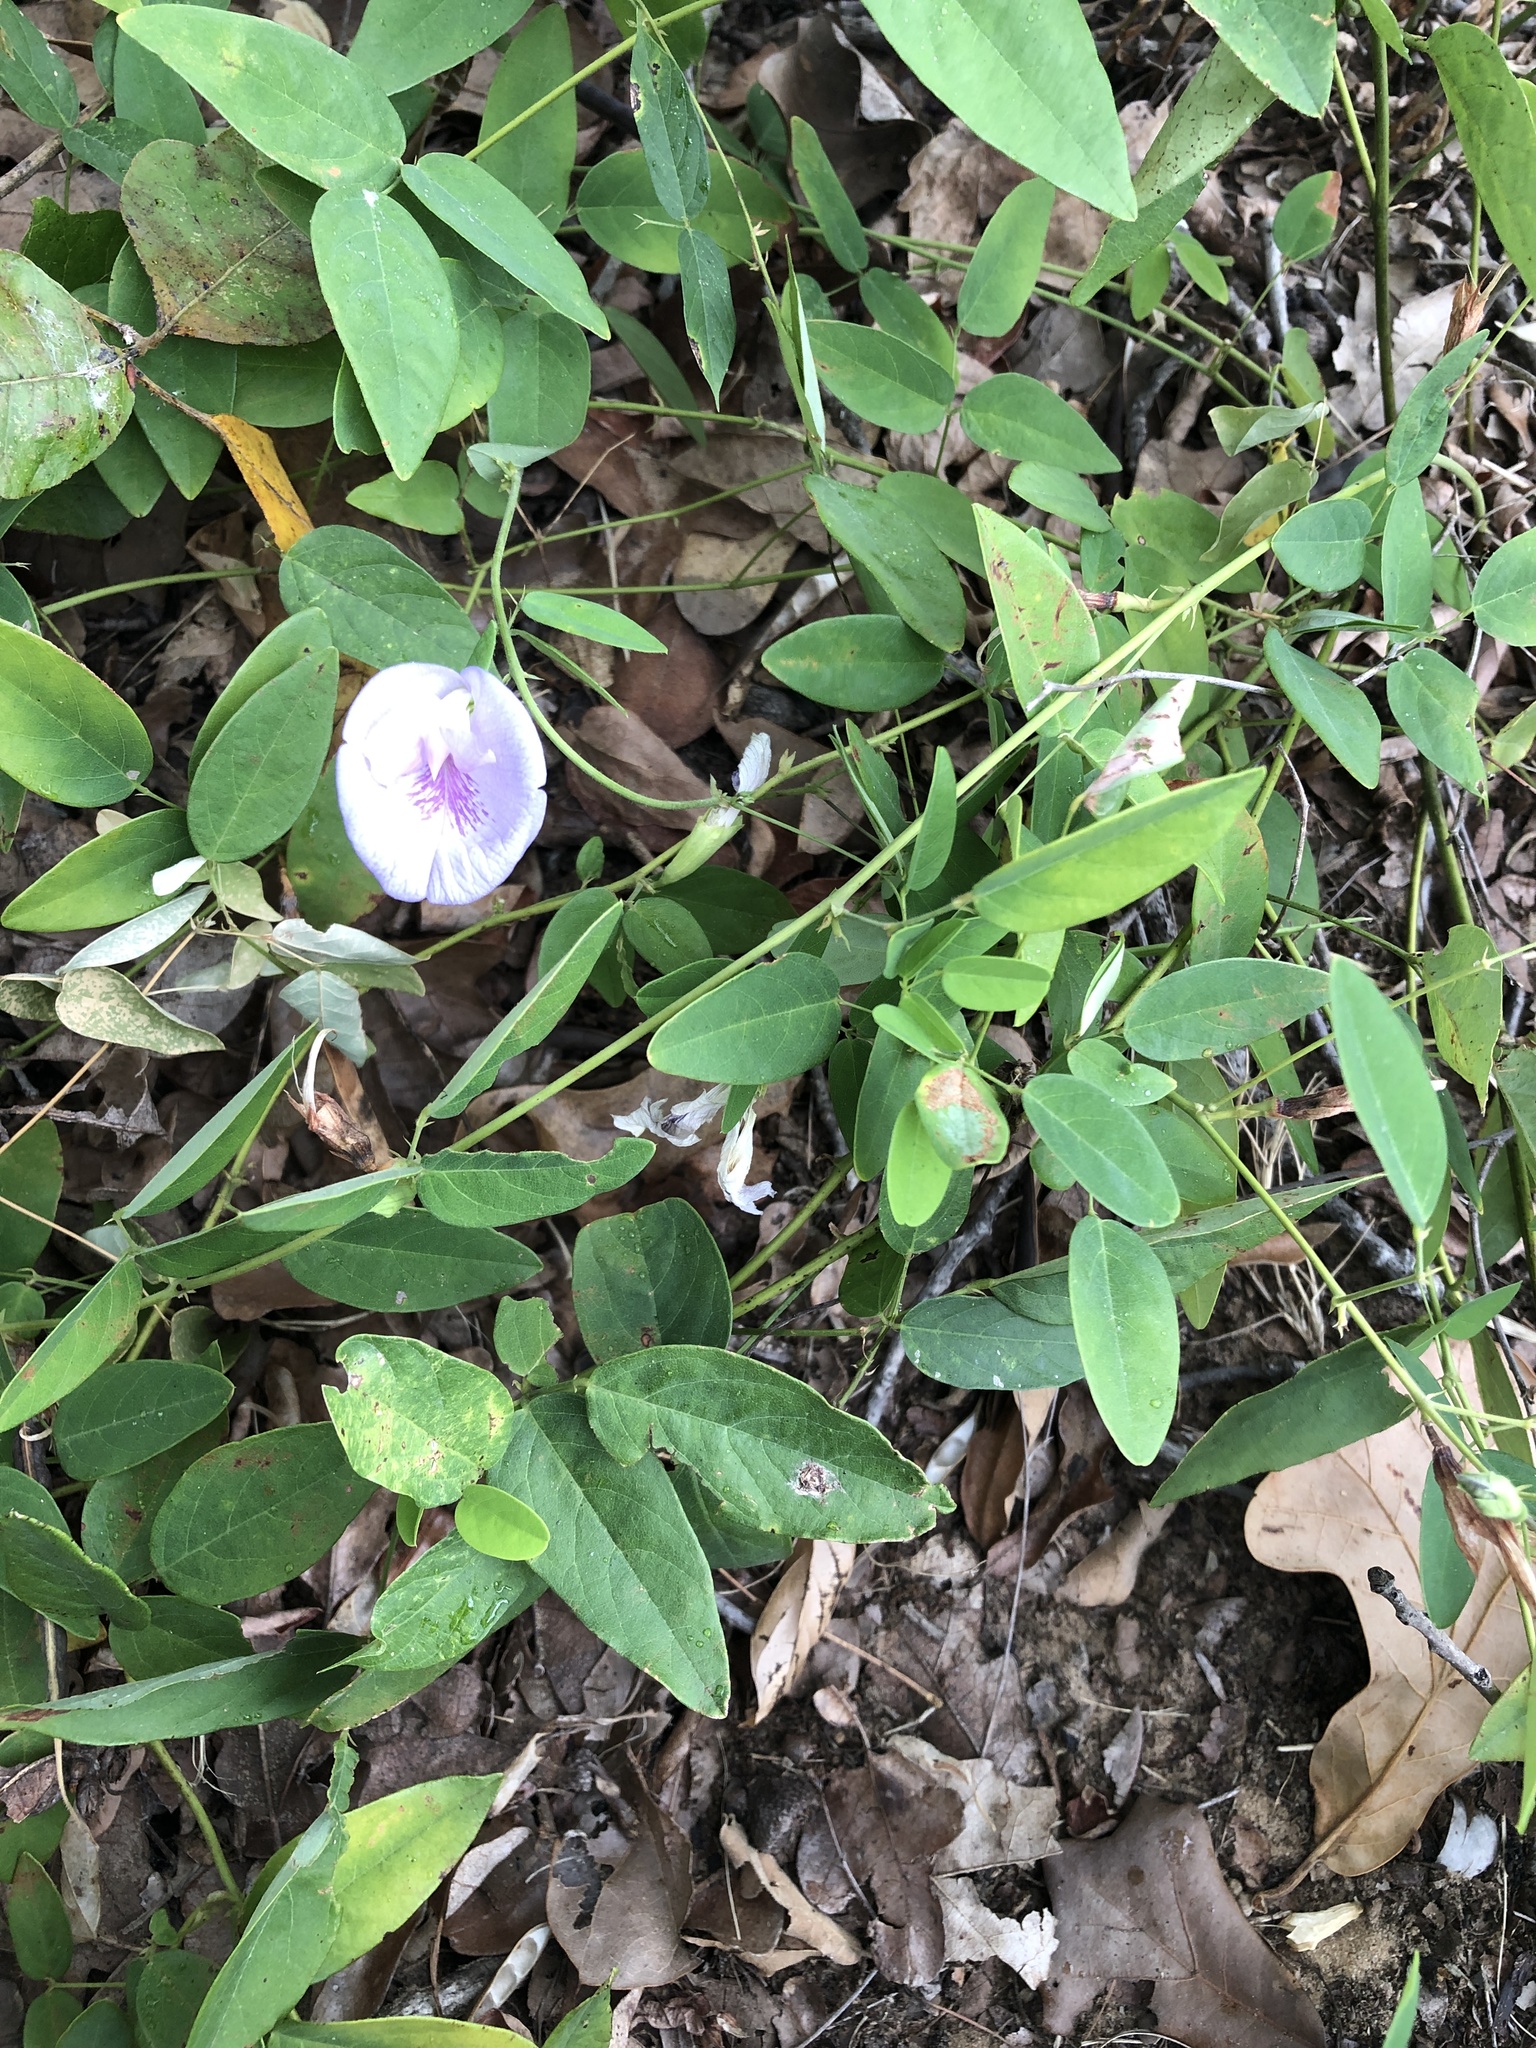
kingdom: Plantae
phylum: Tracheophyta
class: Magnoliopsida
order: Fabales
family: Fabaceae
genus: Clitoria
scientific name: Clitoria mariana
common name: Butterfly-pea
